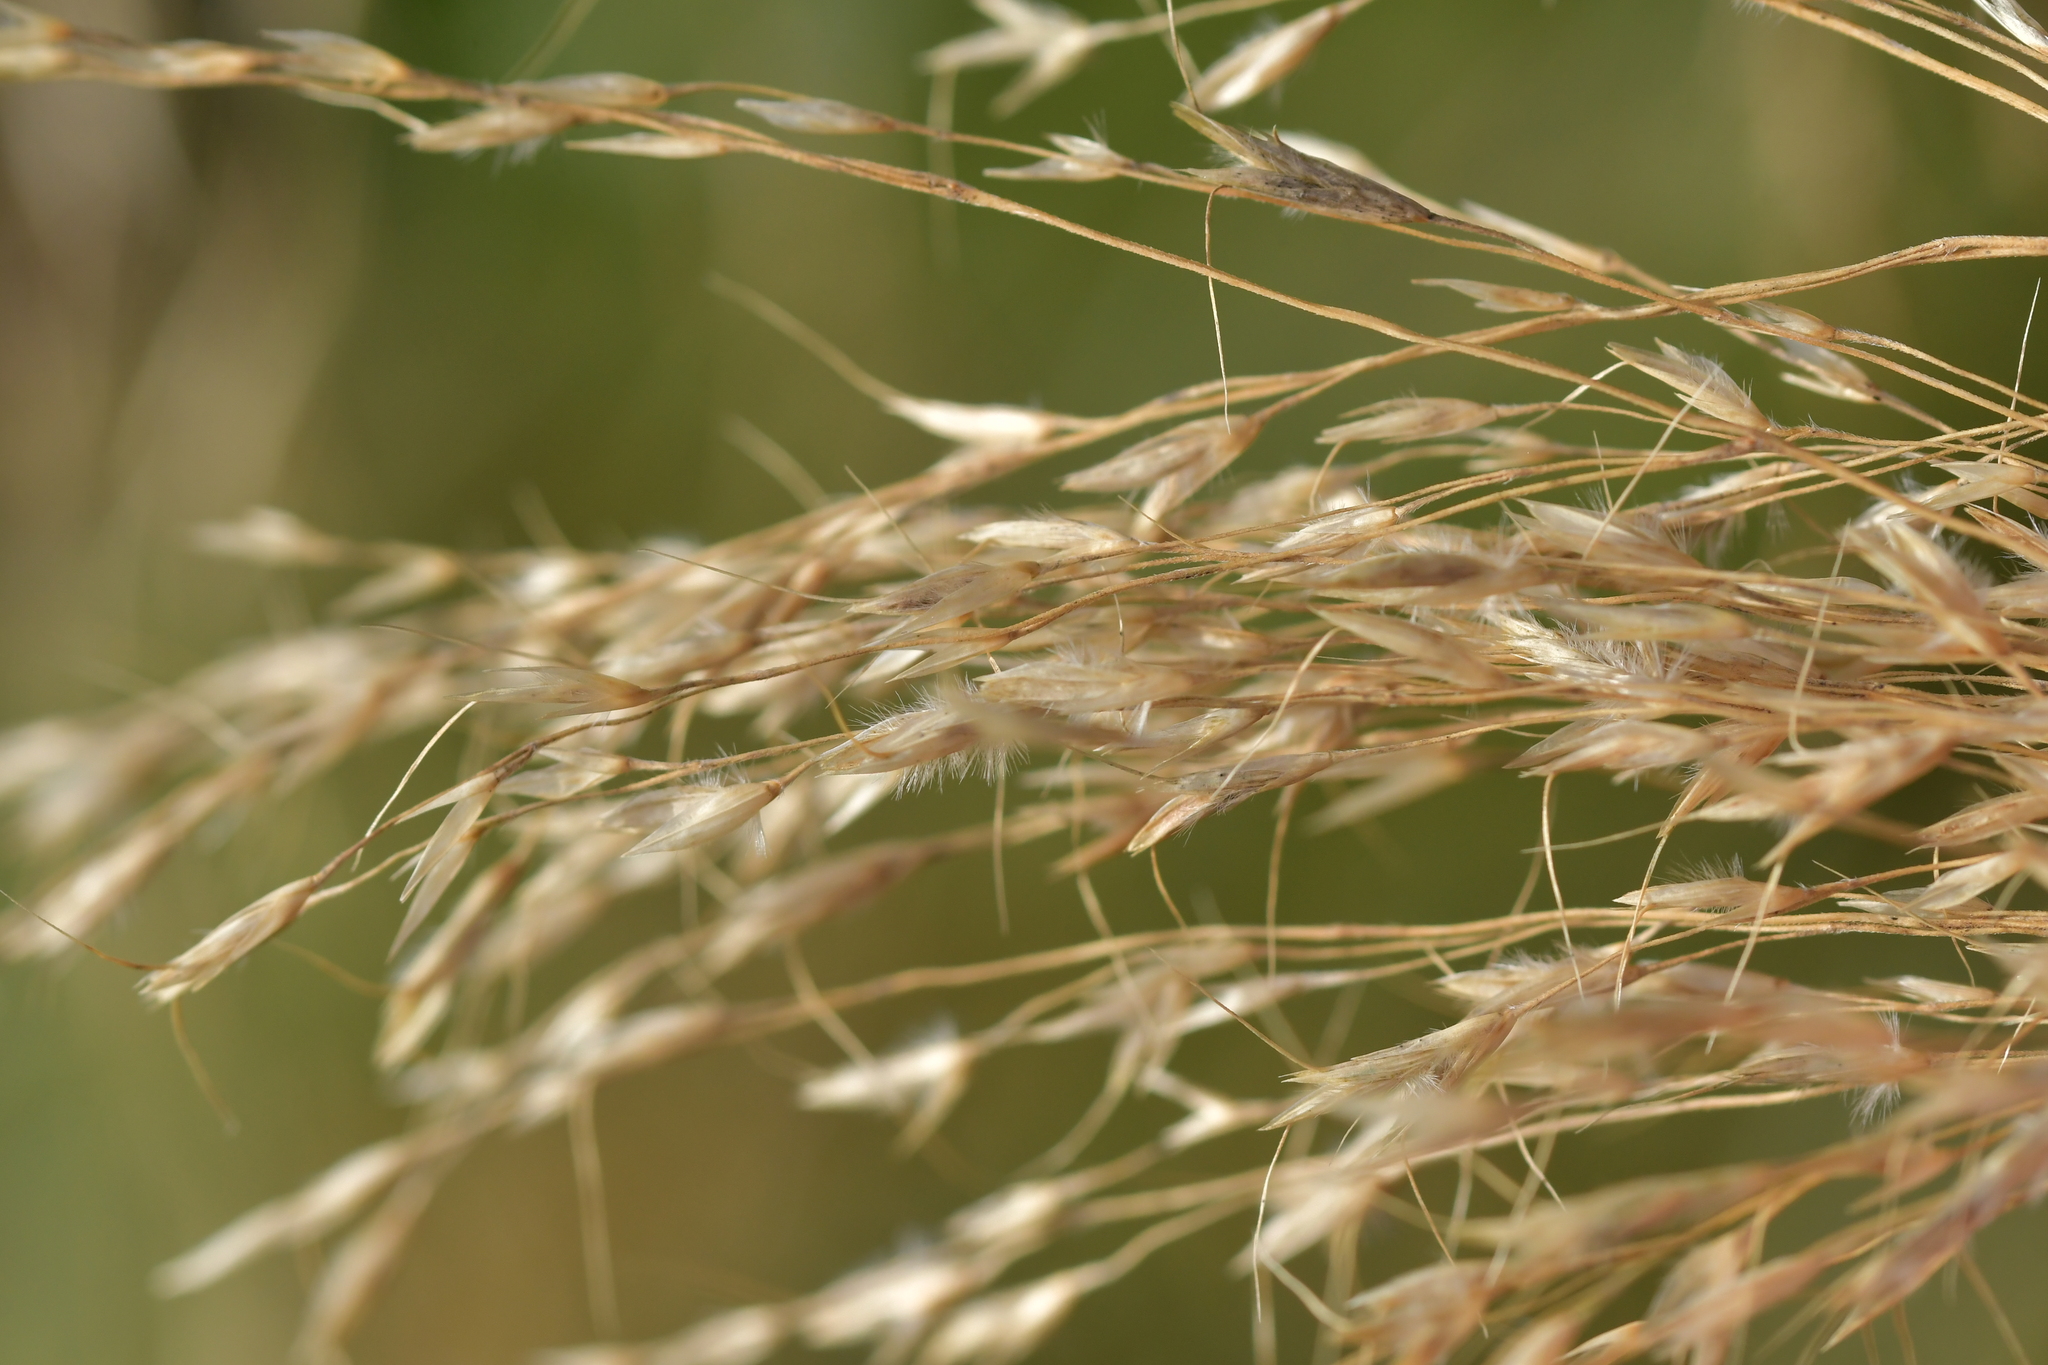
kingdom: Plantae
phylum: Tracheophyta
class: Liliopsida
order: Poales
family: Poaceae
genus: Chionochloa
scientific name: Chionochloa conspicua
